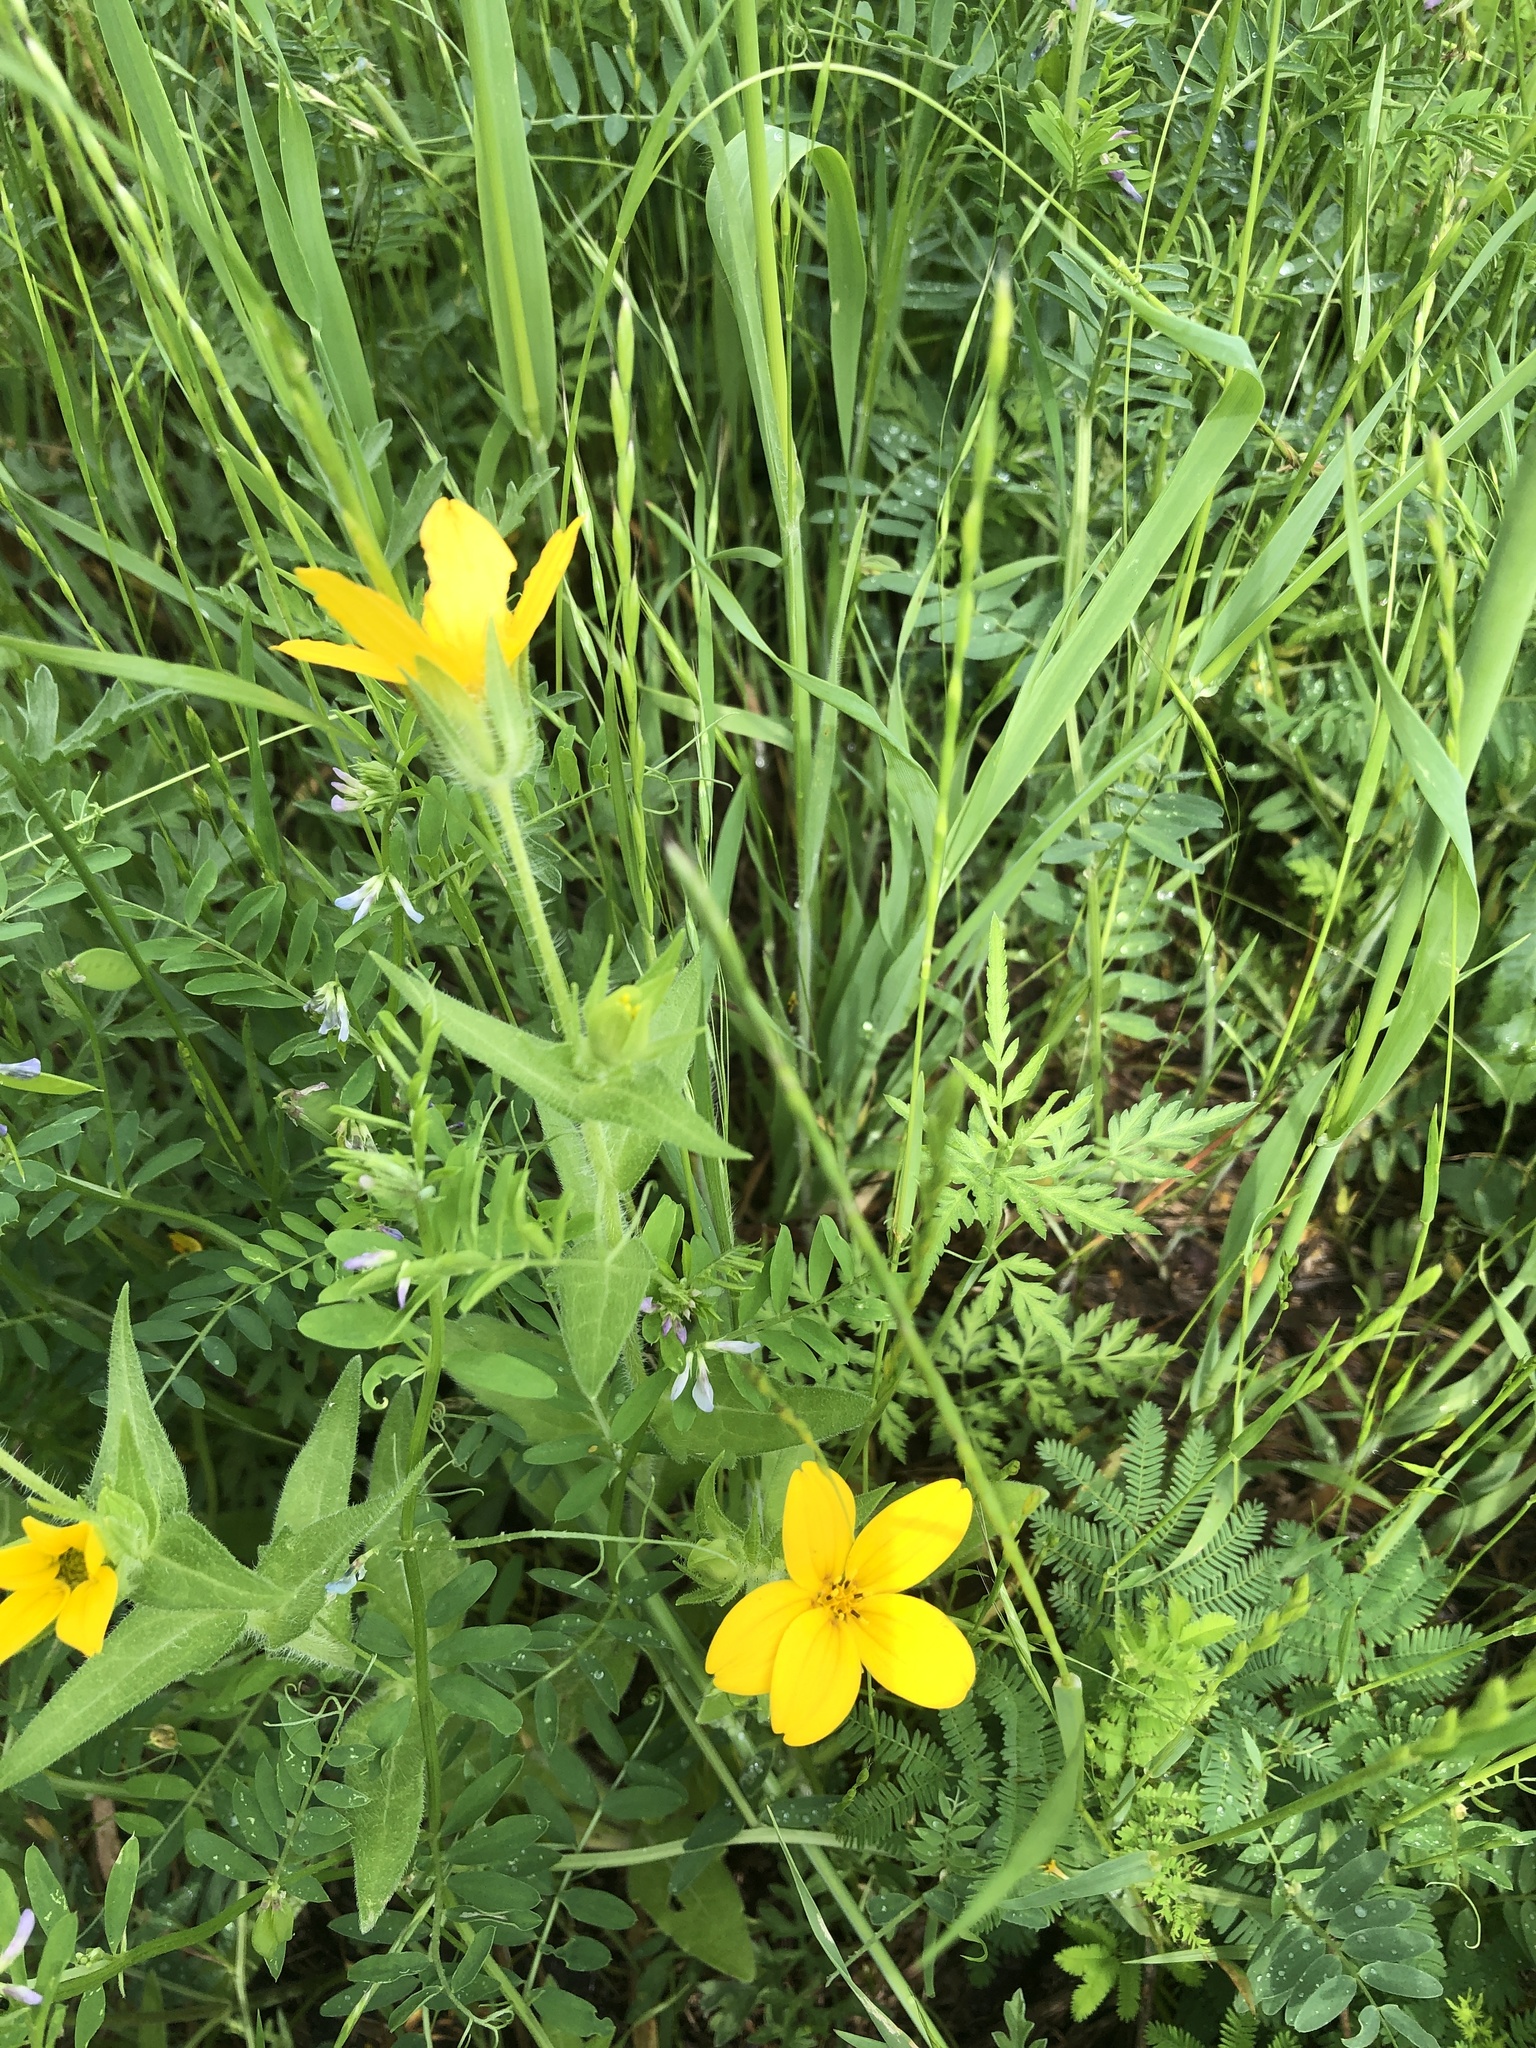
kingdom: Plantae
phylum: Tracheophyta
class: Magnoliopsida
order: Asterales
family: Asteraceae
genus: Lindheimera
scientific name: Lindheimera texana
